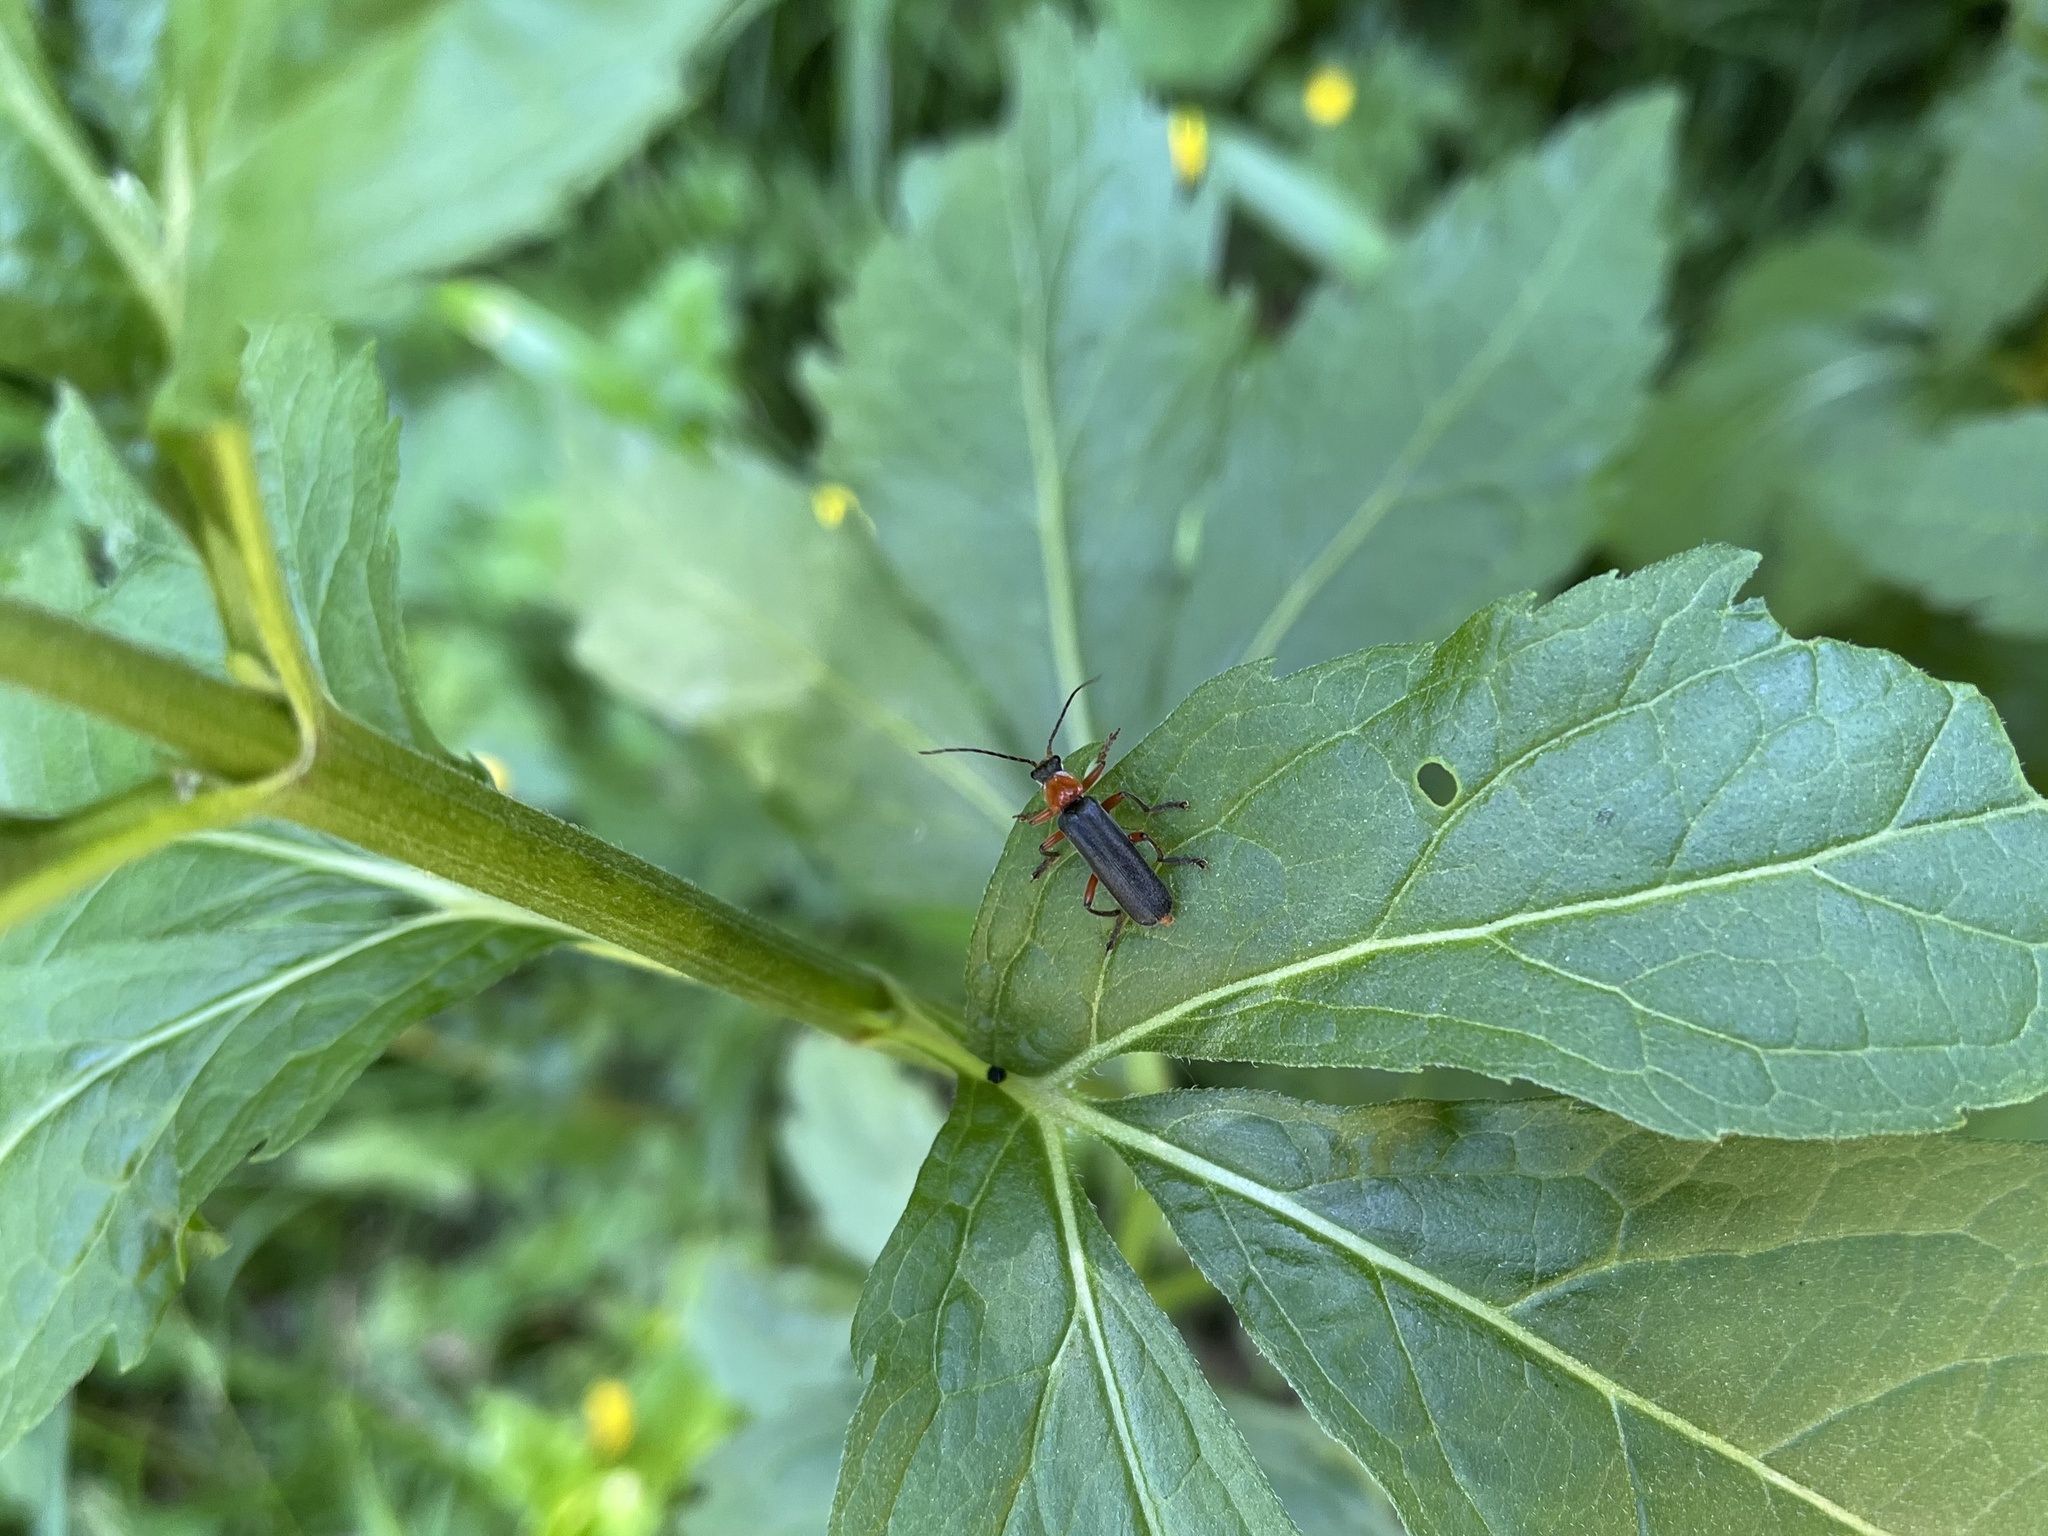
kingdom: Animalia
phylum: Arthropoda
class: Insecta
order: Coleoptera
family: Cantharidae
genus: Cantharis
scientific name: Cantharis pellucida
